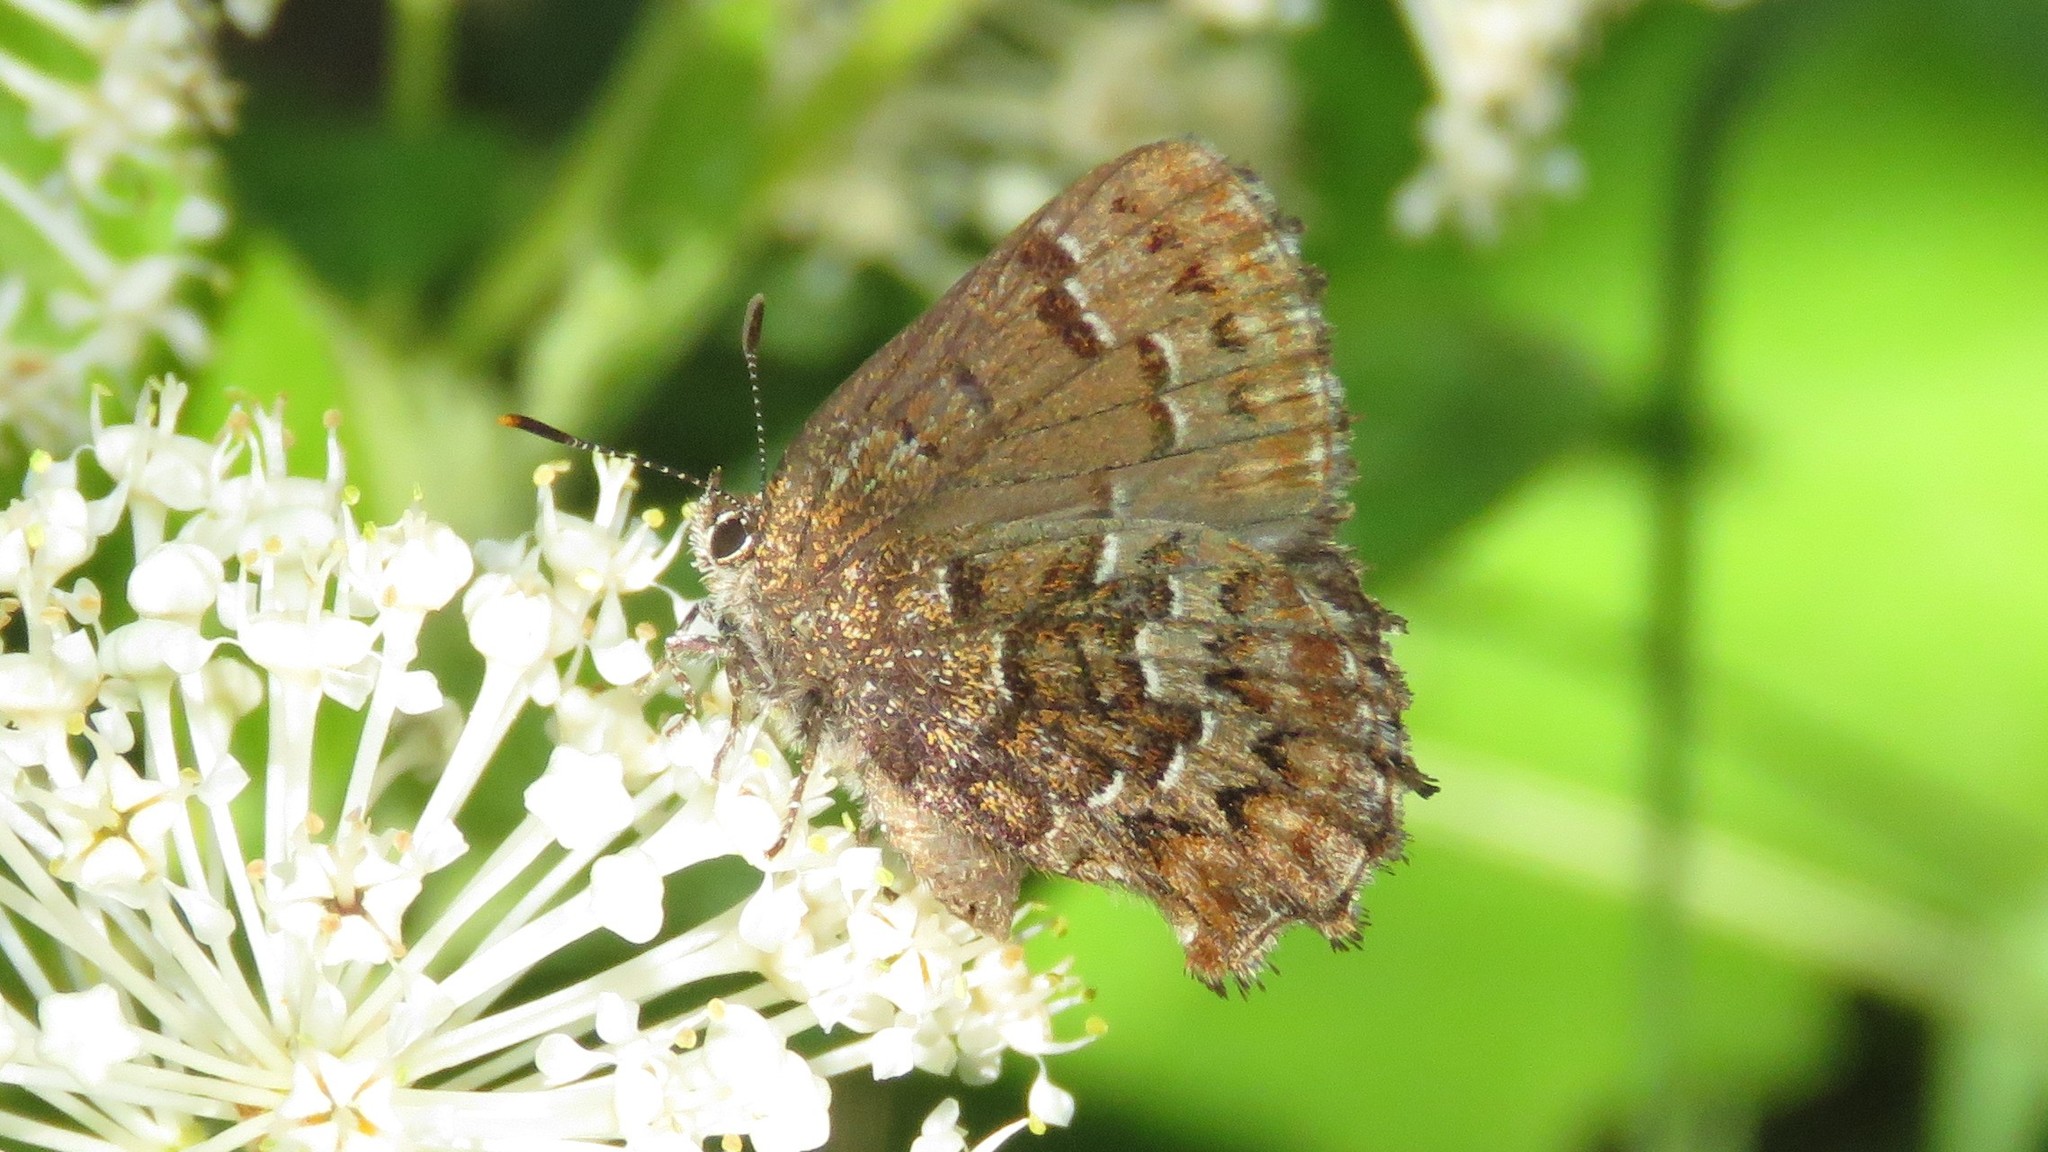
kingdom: Animalia
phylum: Arthropoda
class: Insecta
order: Lepidoptera
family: Lycaenidae
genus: Incisalia
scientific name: Incisalia niphon
